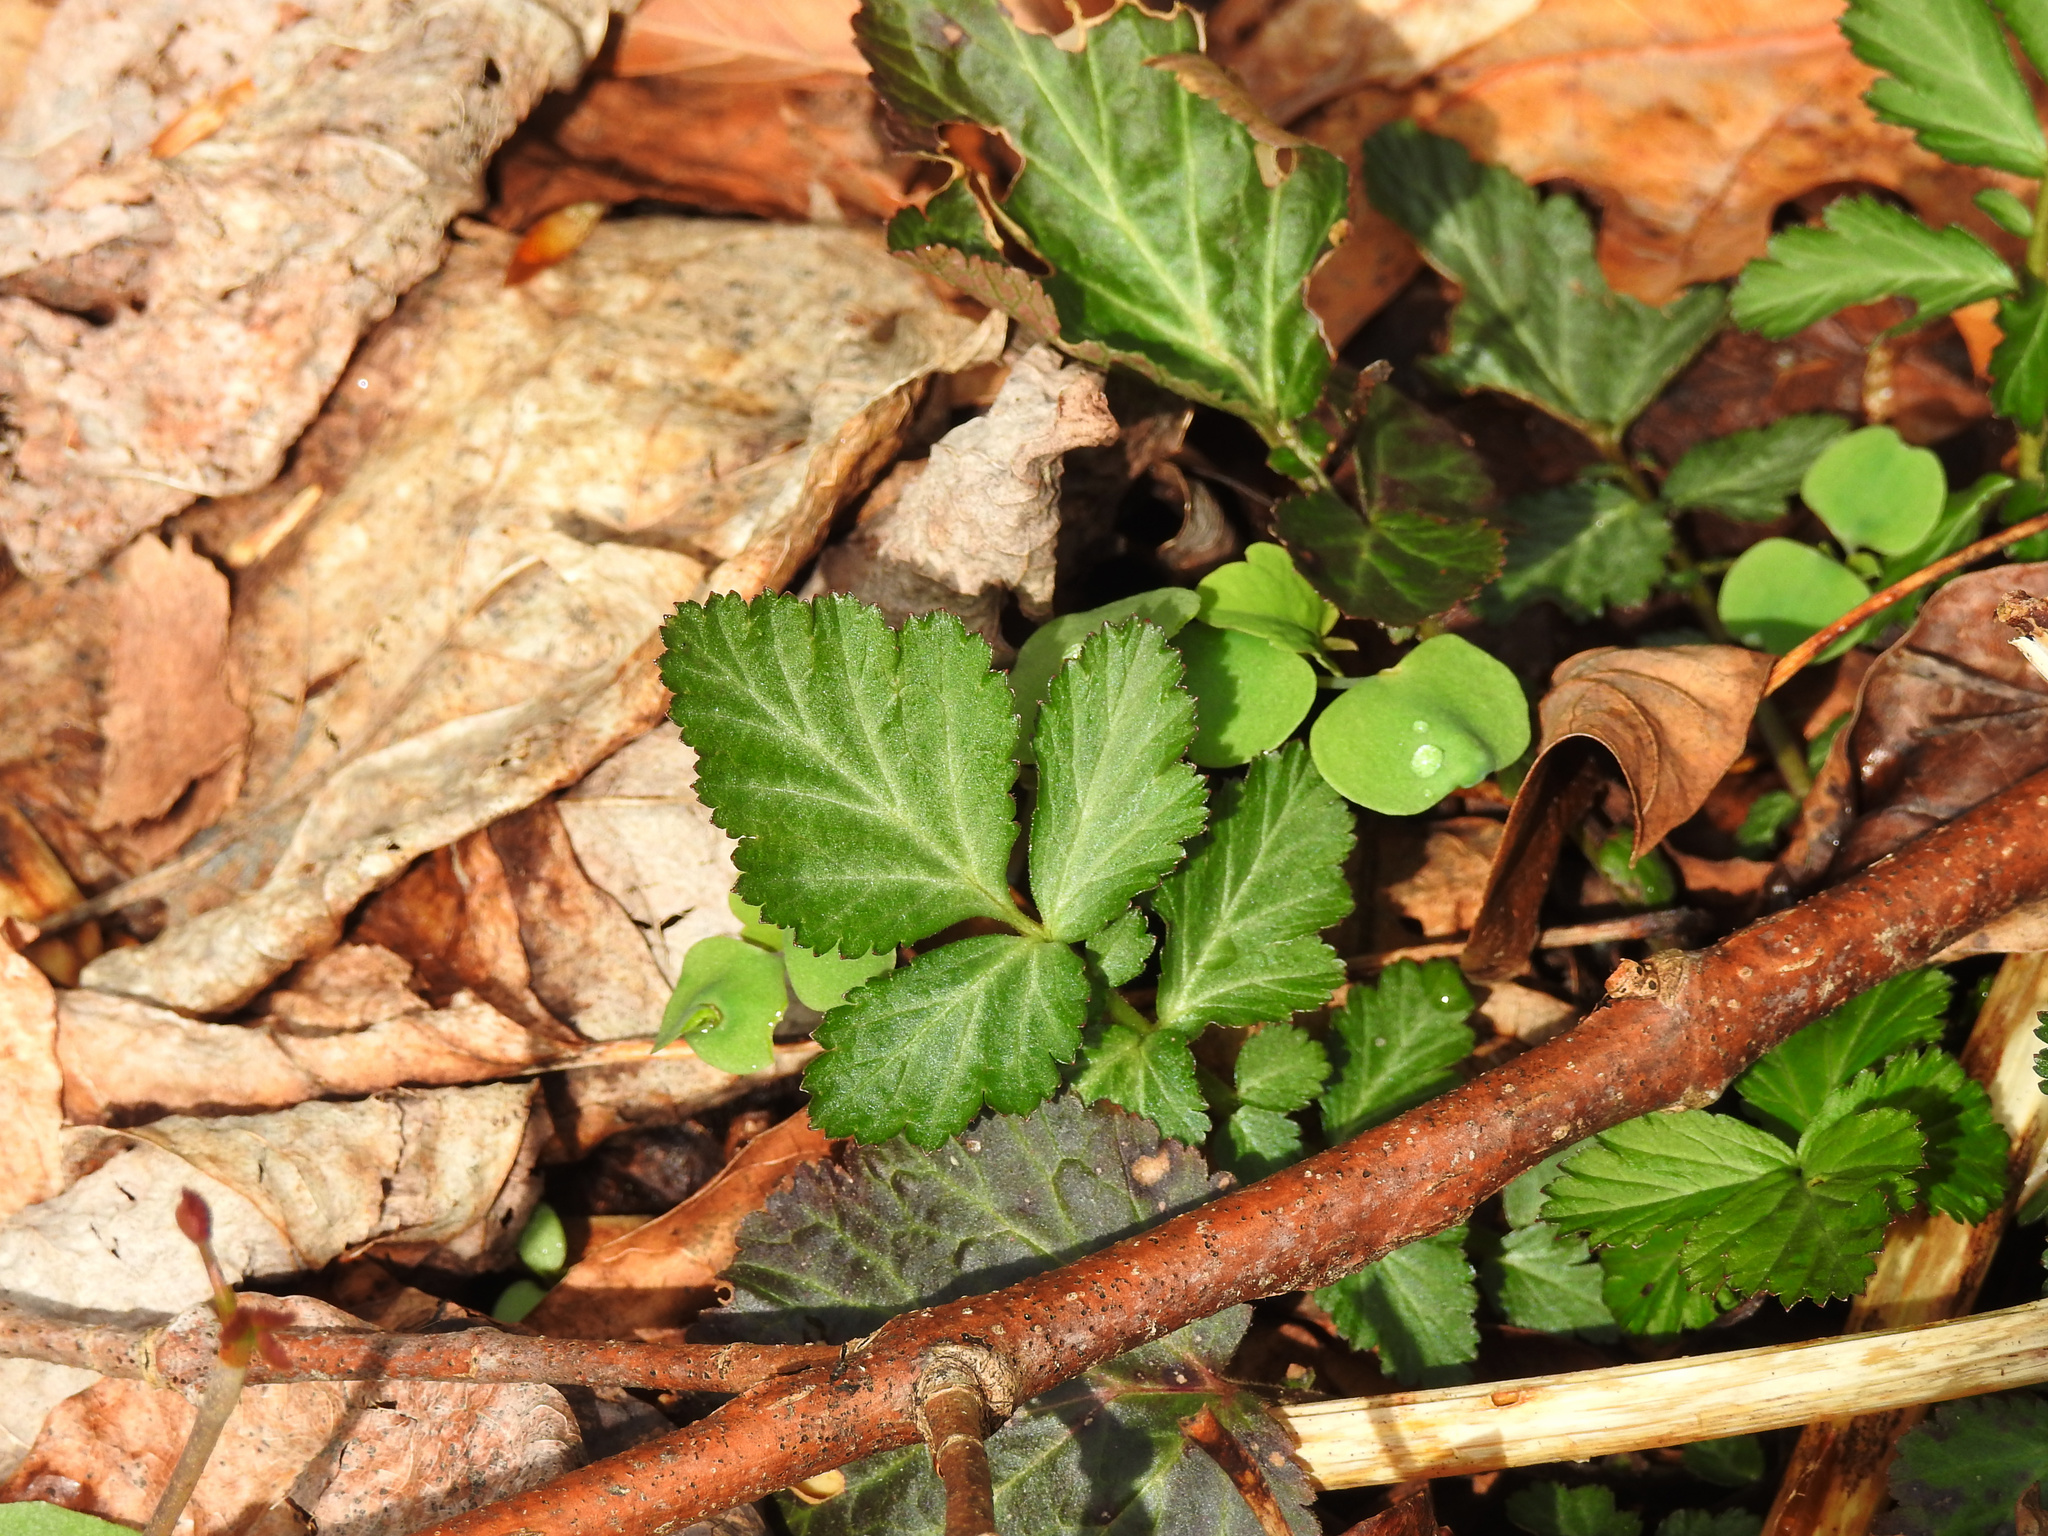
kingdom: Plantae
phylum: Tracheophyta
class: Magnoliopsida
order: Rosales
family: Rosaceae
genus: Geum
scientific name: Geum canadense
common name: White avens
